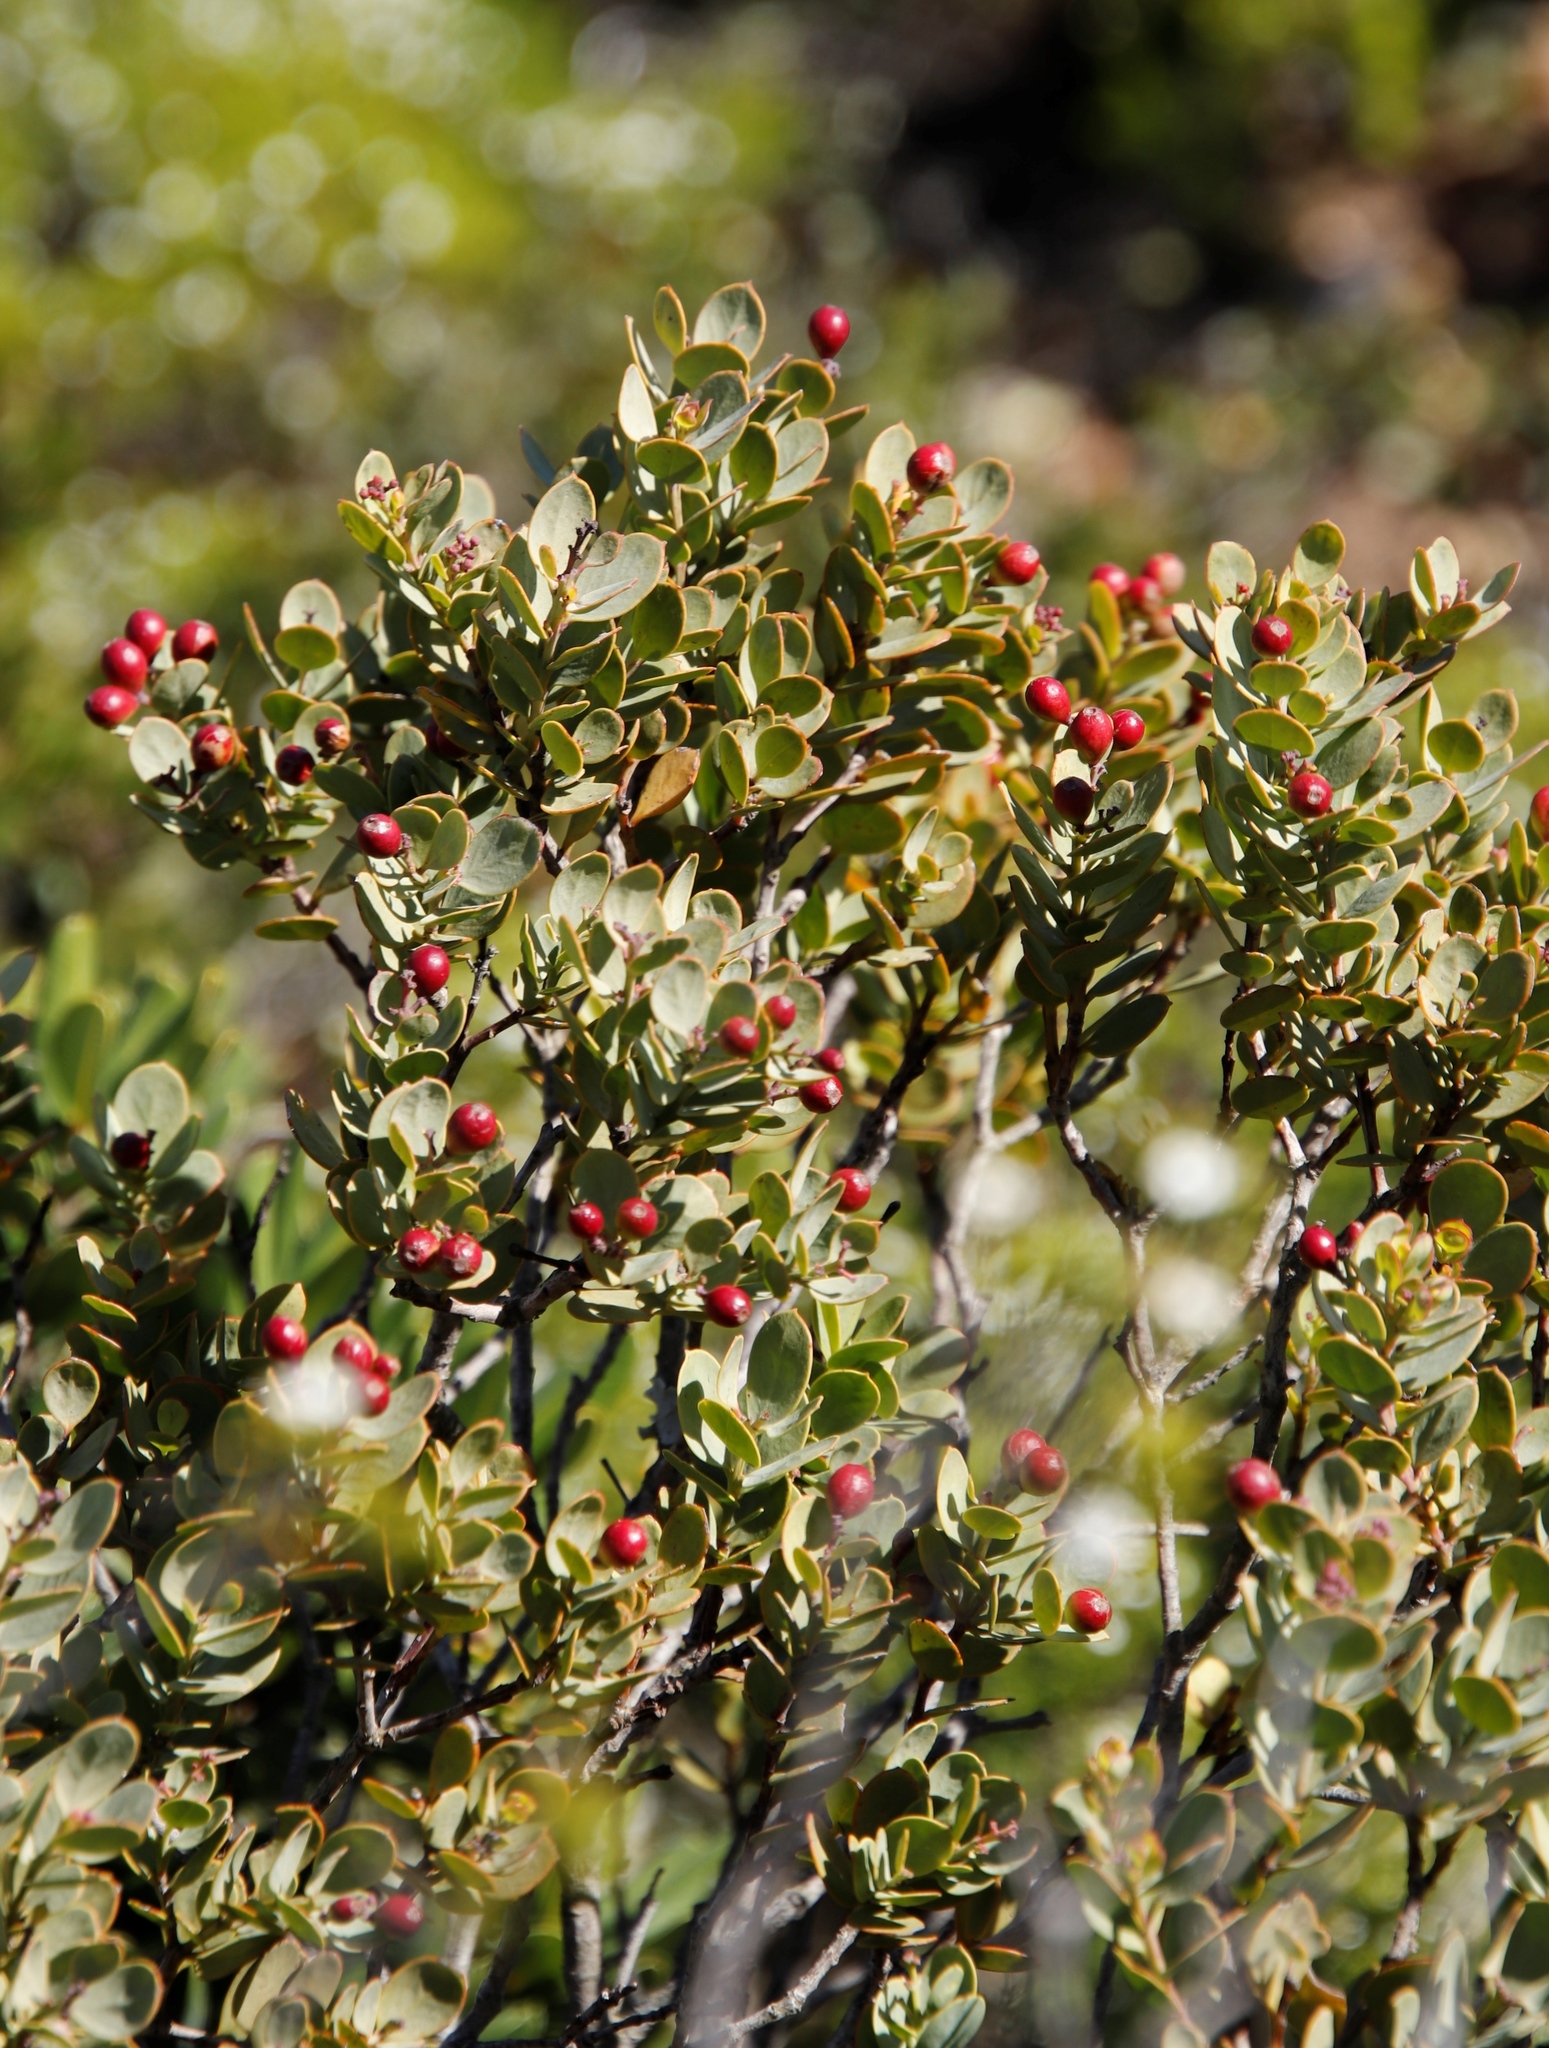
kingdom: Plantae
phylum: Tracheophyta
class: Magnoliopsida
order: Santalales
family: Santalaceae
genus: Osyris
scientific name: Osyris compressa
